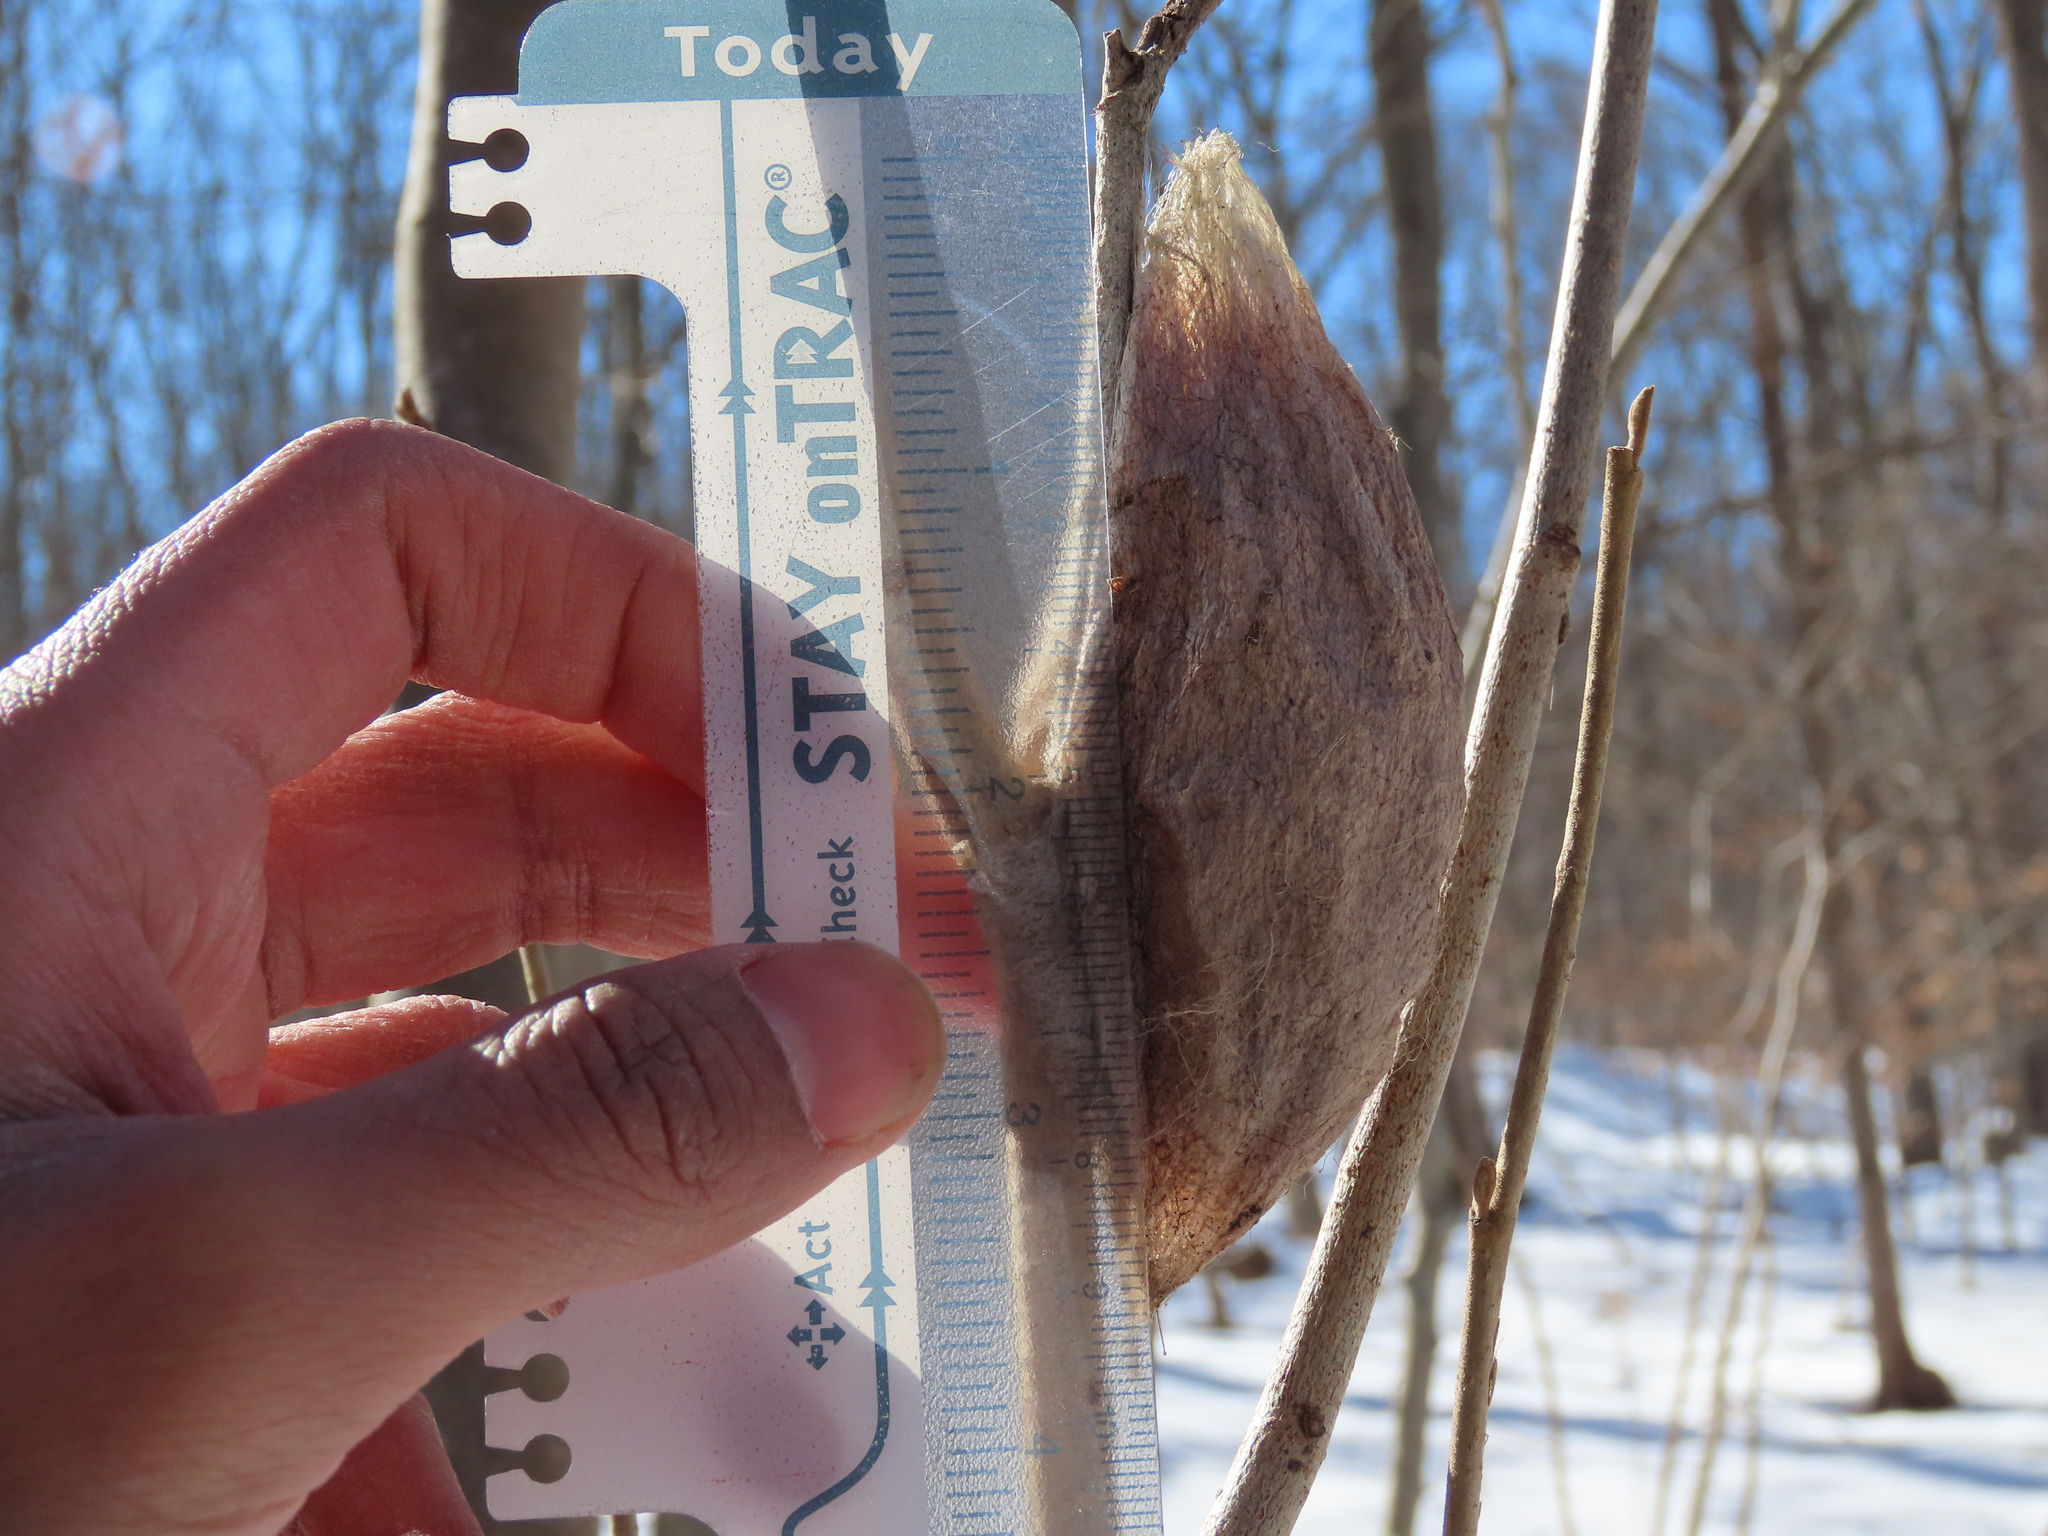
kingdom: Animalia
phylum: Arthropoda
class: Insecta
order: Lepidoptera
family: Saturniidae
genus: Hyalophora
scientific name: Hyalophora cecropia
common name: Cecropia silkmoth
